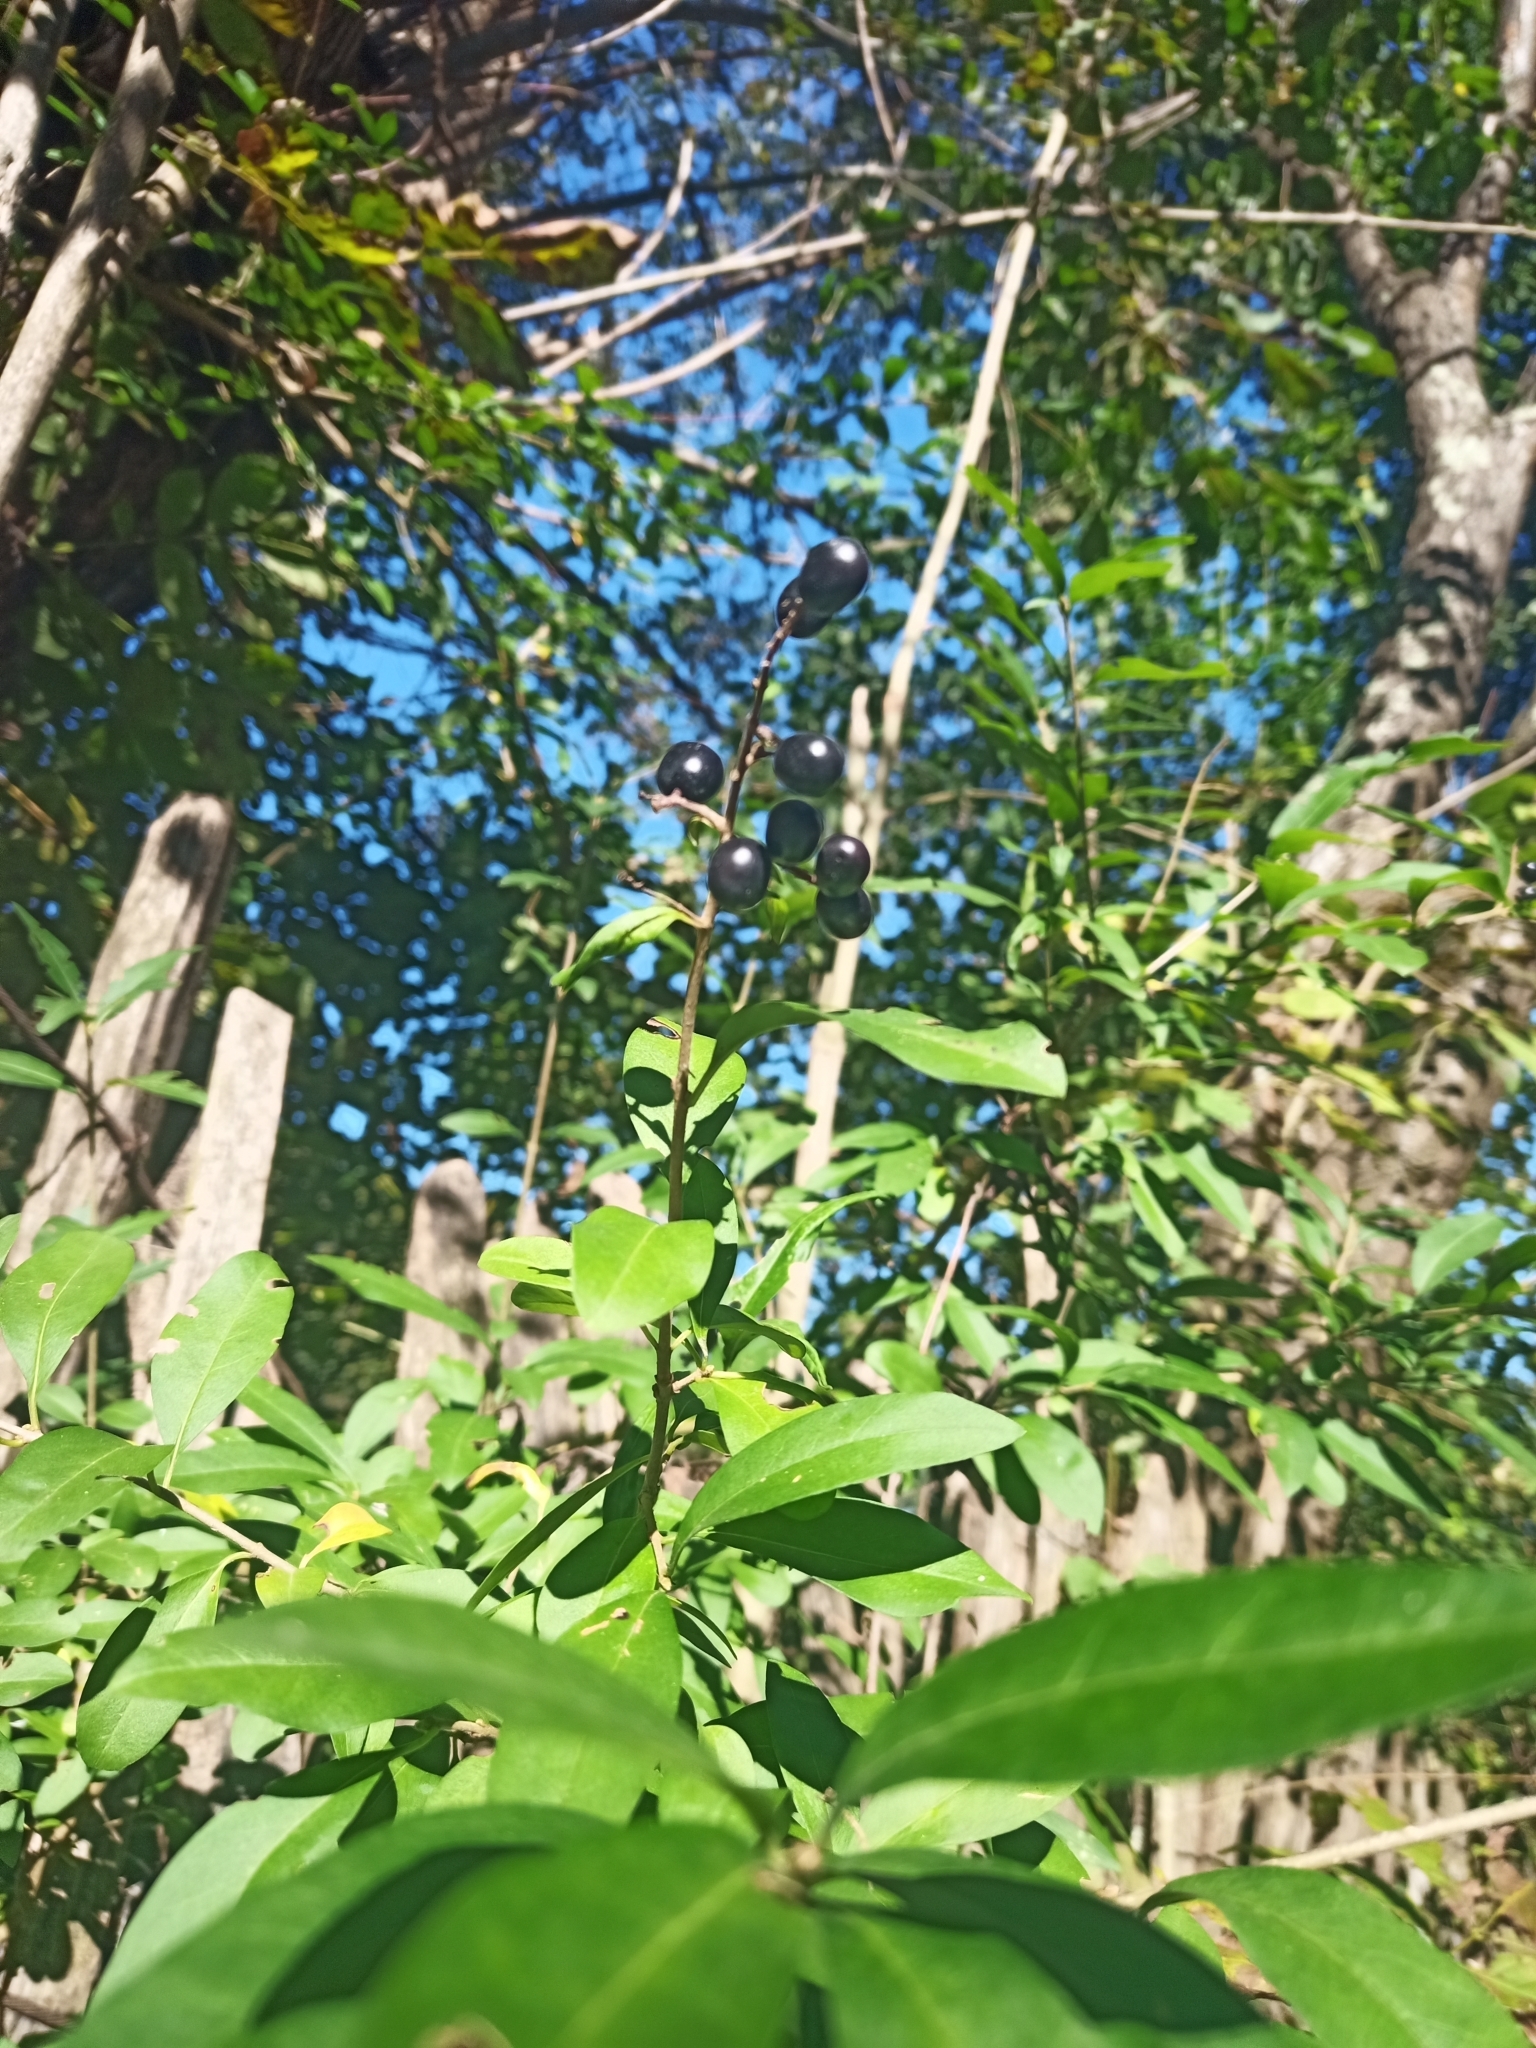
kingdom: Plantae
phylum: Tracheophyta
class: Magnoliopsida
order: Lamiales
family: Oleaceae
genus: Ligustrum
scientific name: Ligustrum vulgare
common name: Wild privet
